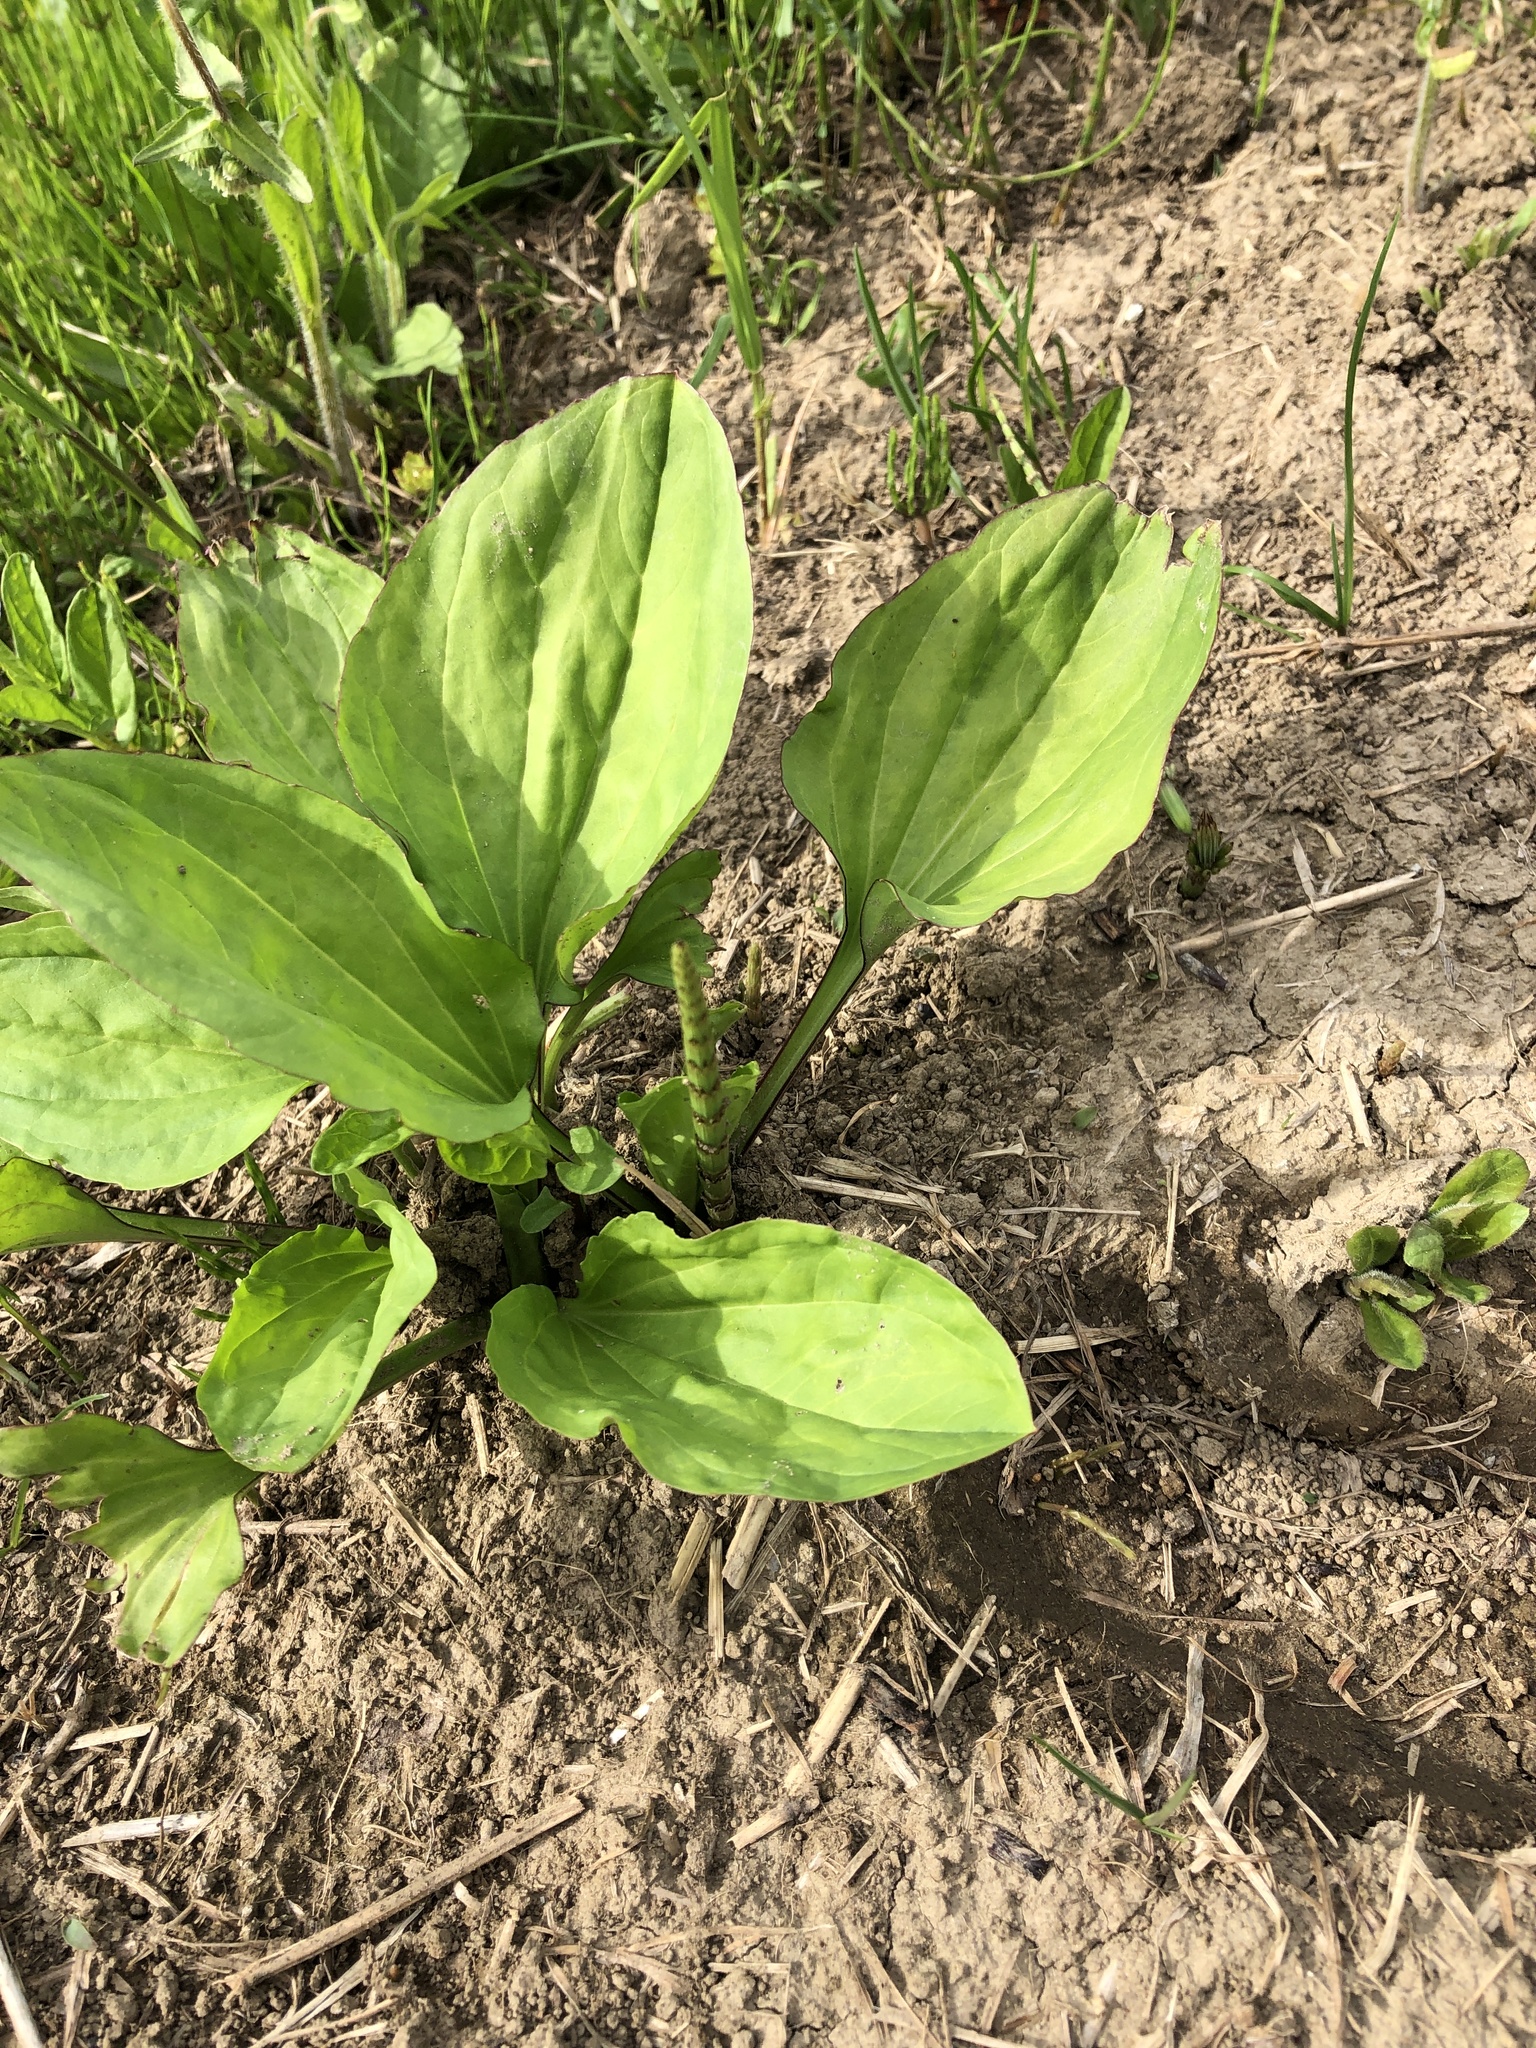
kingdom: Plantae
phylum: Tracheophyta
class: Magnoliopsida
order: Lamiales
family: Plantaginaceae
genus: Plantago
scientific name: Plantago asiatica
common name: Psyllium
